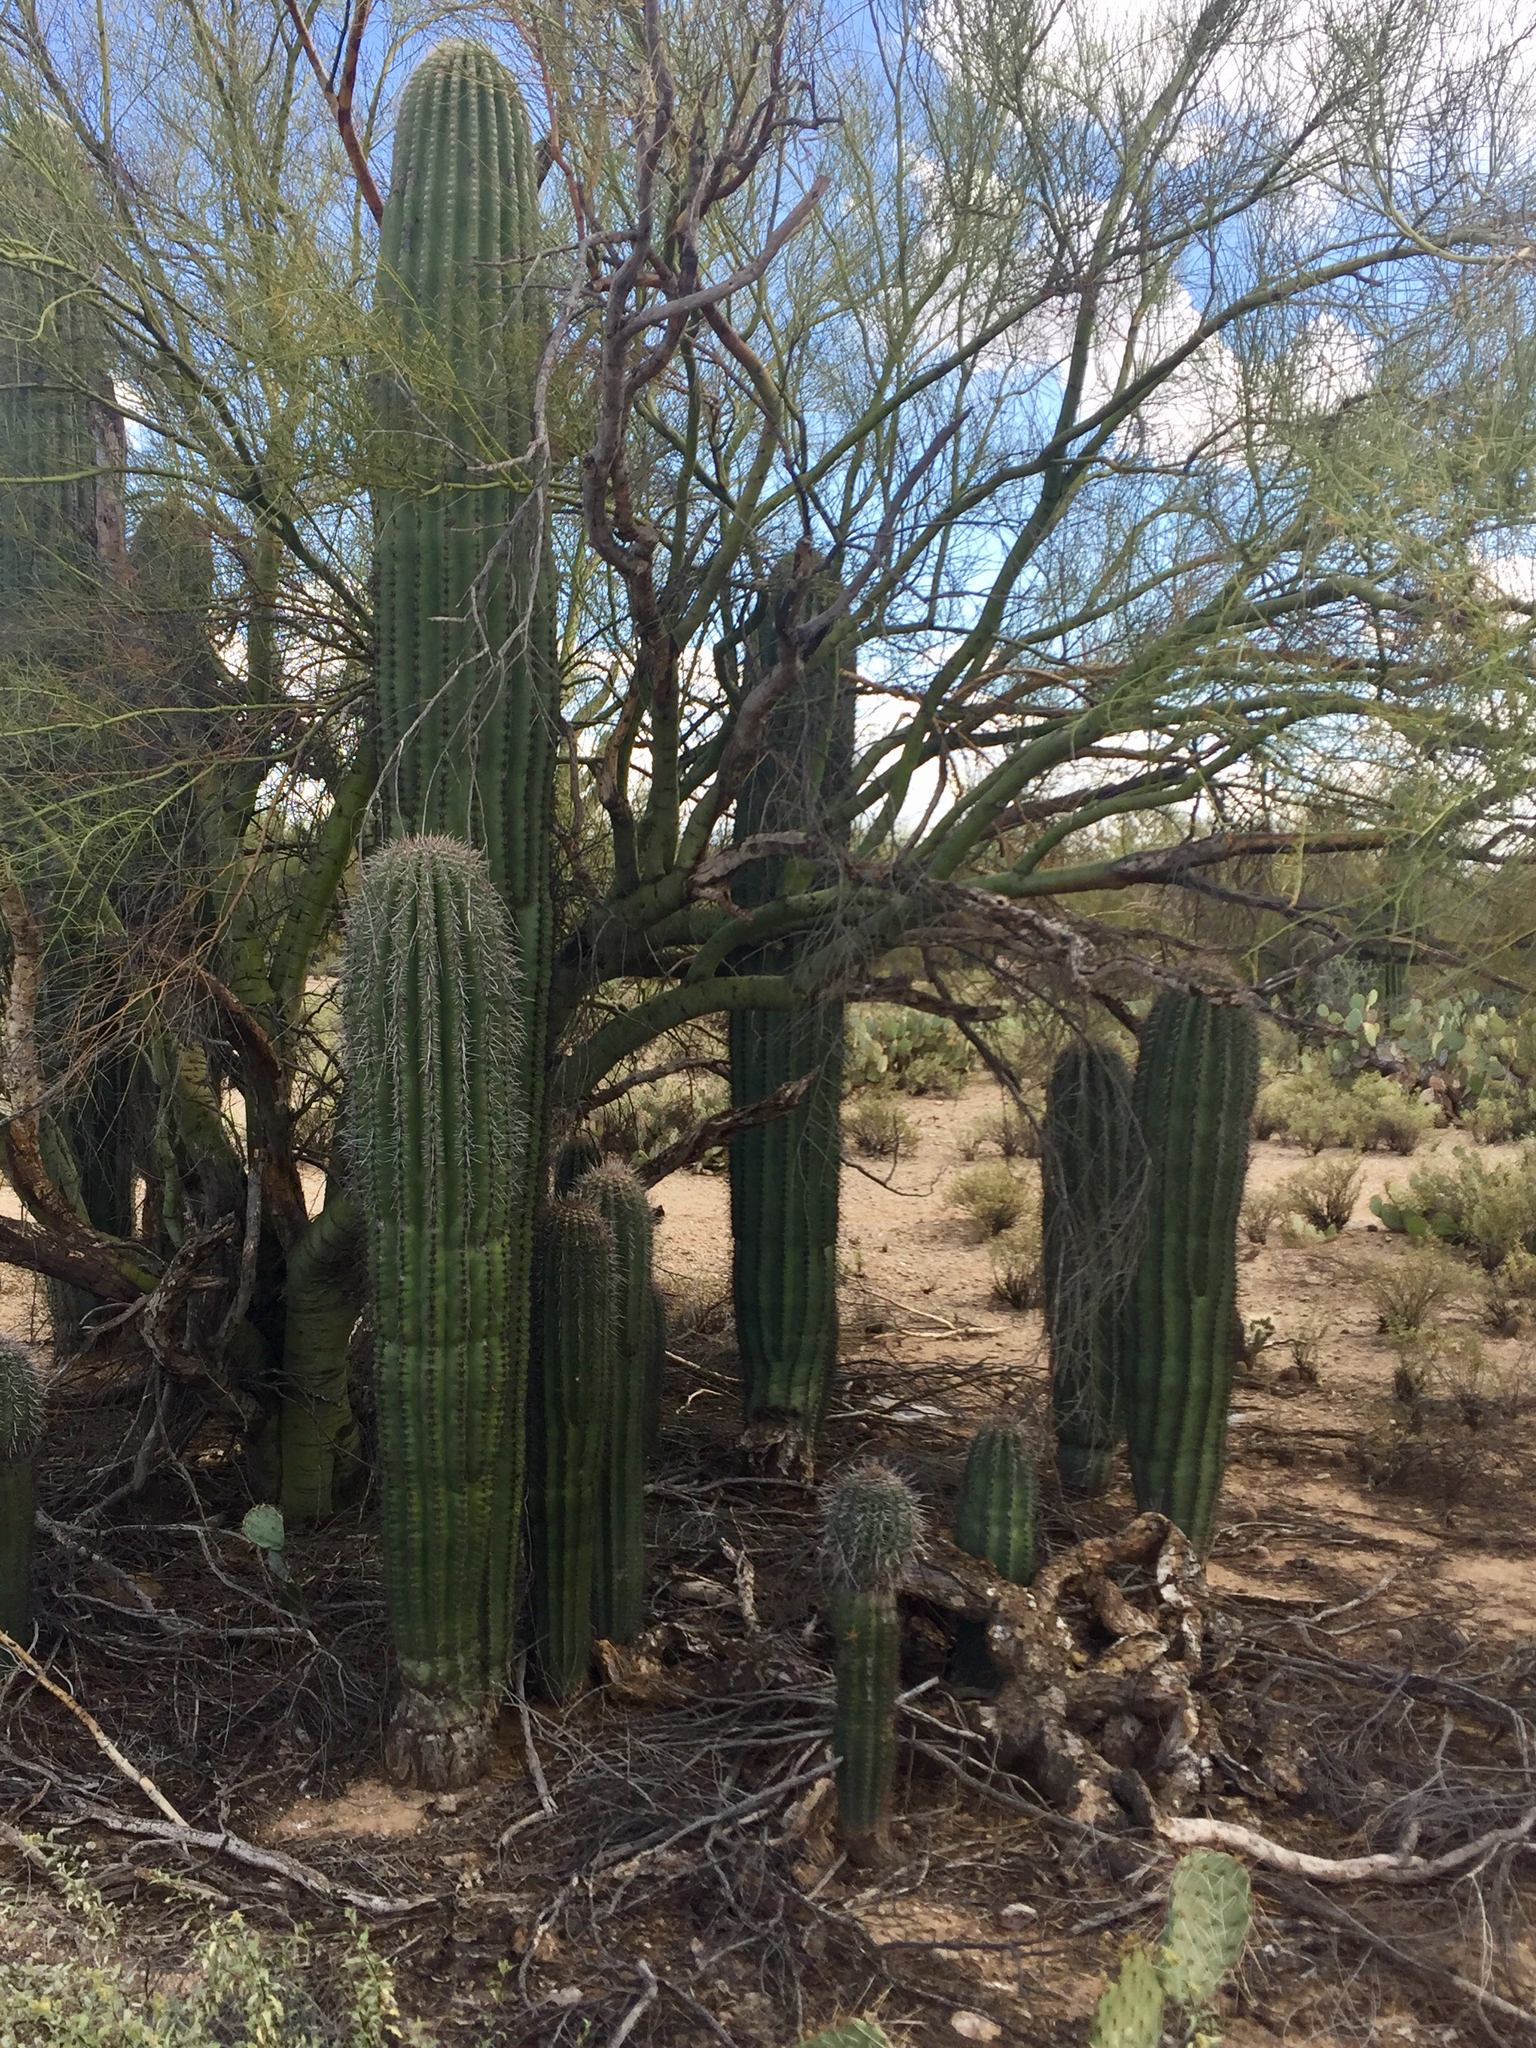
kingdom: Plantae
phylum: Tracheophyta
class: Magnoliopsida
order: Caryophyllales
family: Cactaceae
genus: Carnegiea
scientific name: Carnegiea gigantea
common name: Saguaro
